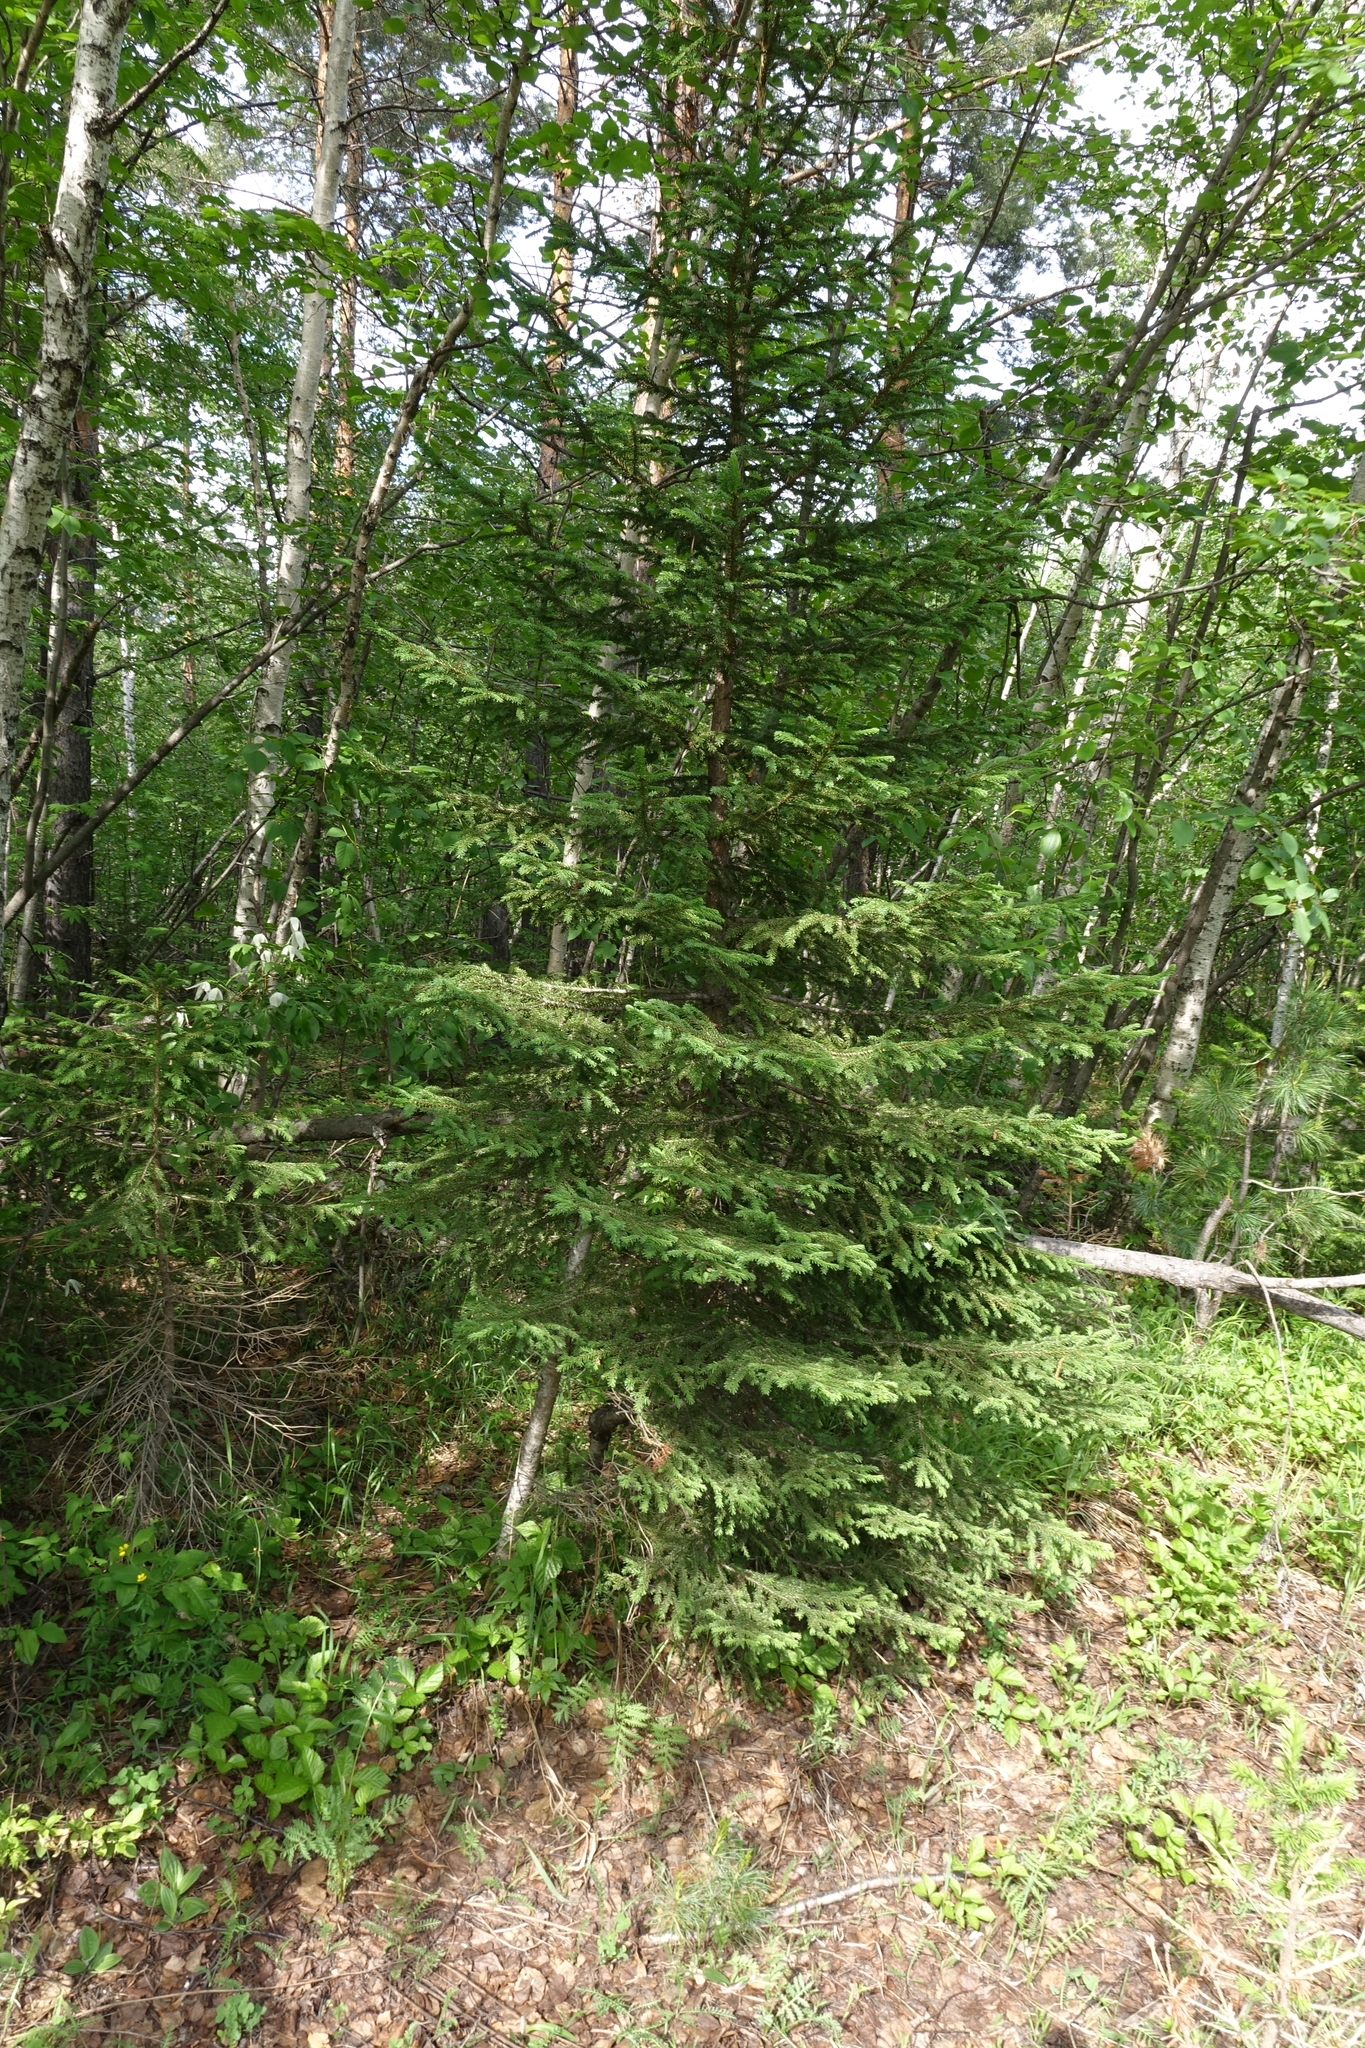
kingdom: Plantae
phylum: Tracheophyta
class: Pinopsida
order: Pinales
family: Pinaceae
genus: Picea
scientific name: Picea obovata
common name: Siberian spruce
